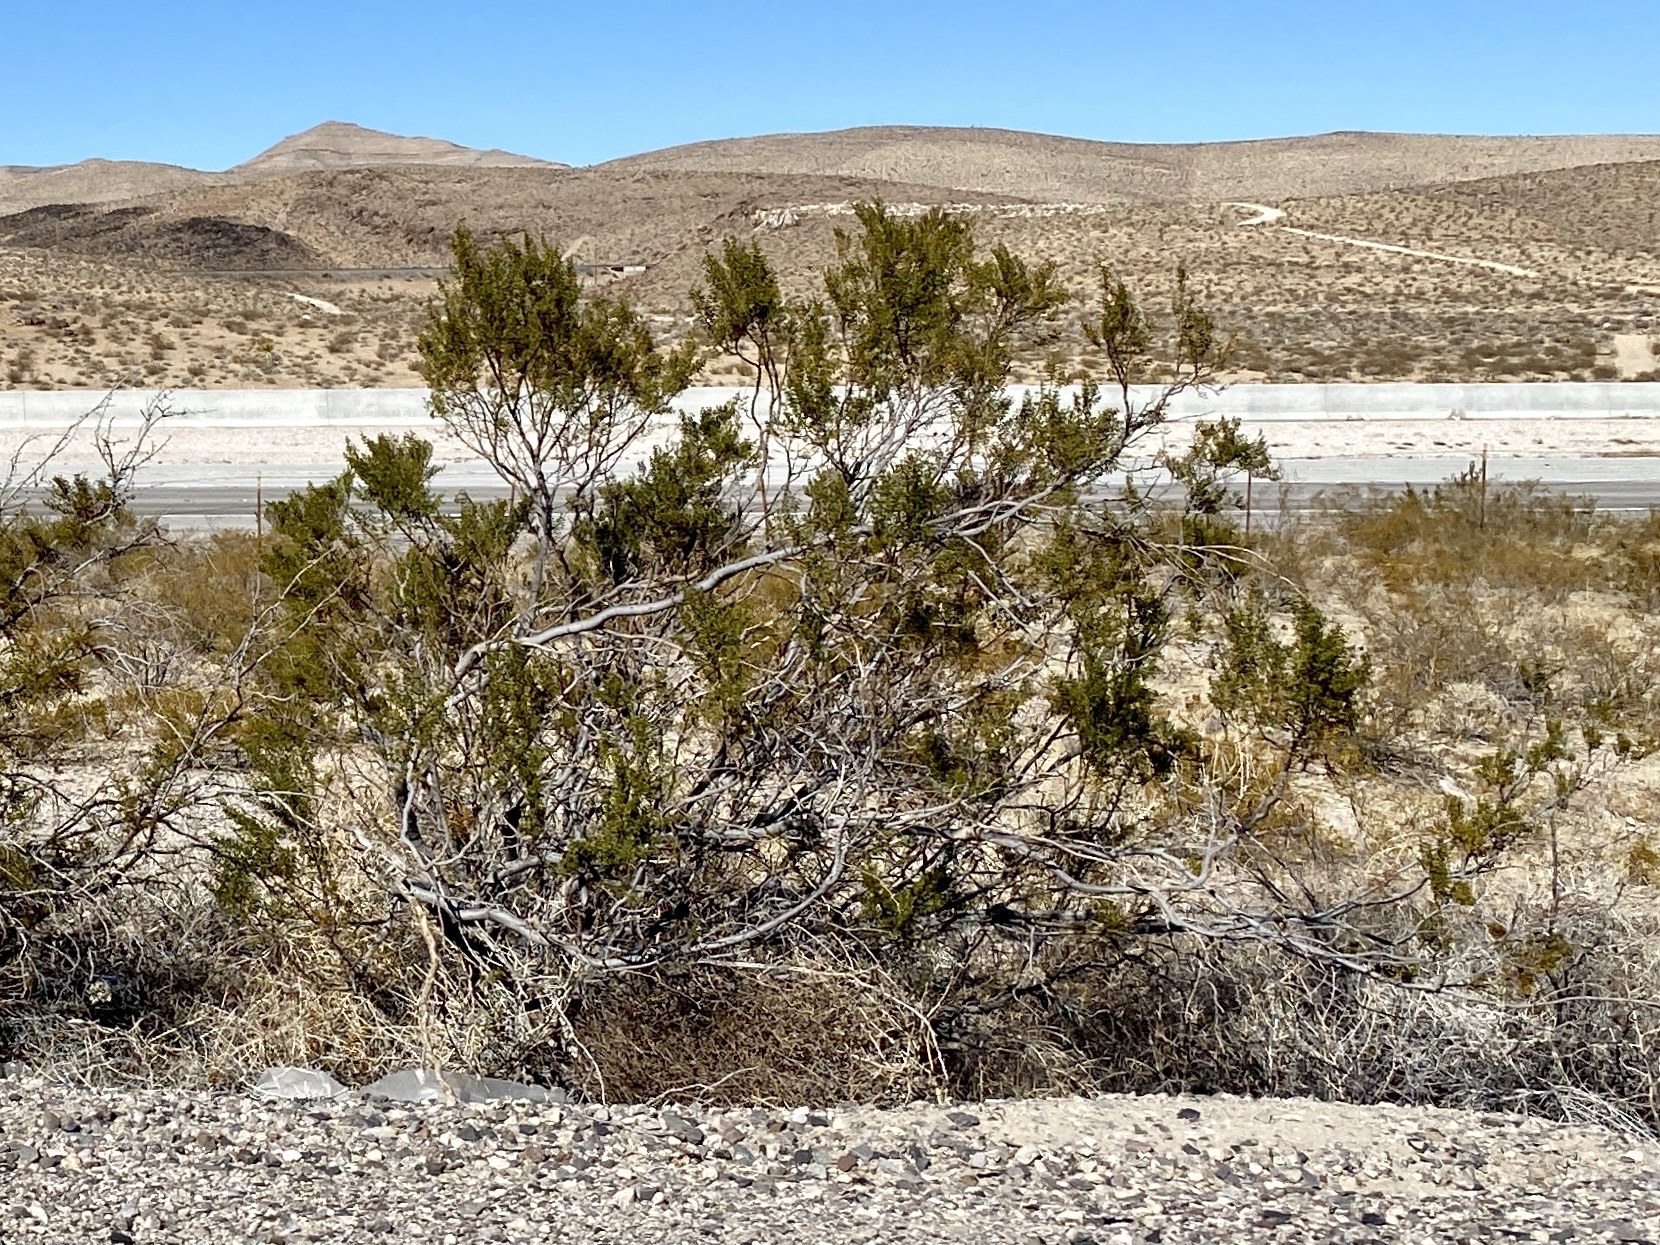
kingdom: Plantae
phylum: Tracheophyta
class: Magnoliopsida
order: Zygophyllales
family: Zygophyllaceae
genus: Larrea
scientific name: Larrea tridentata
